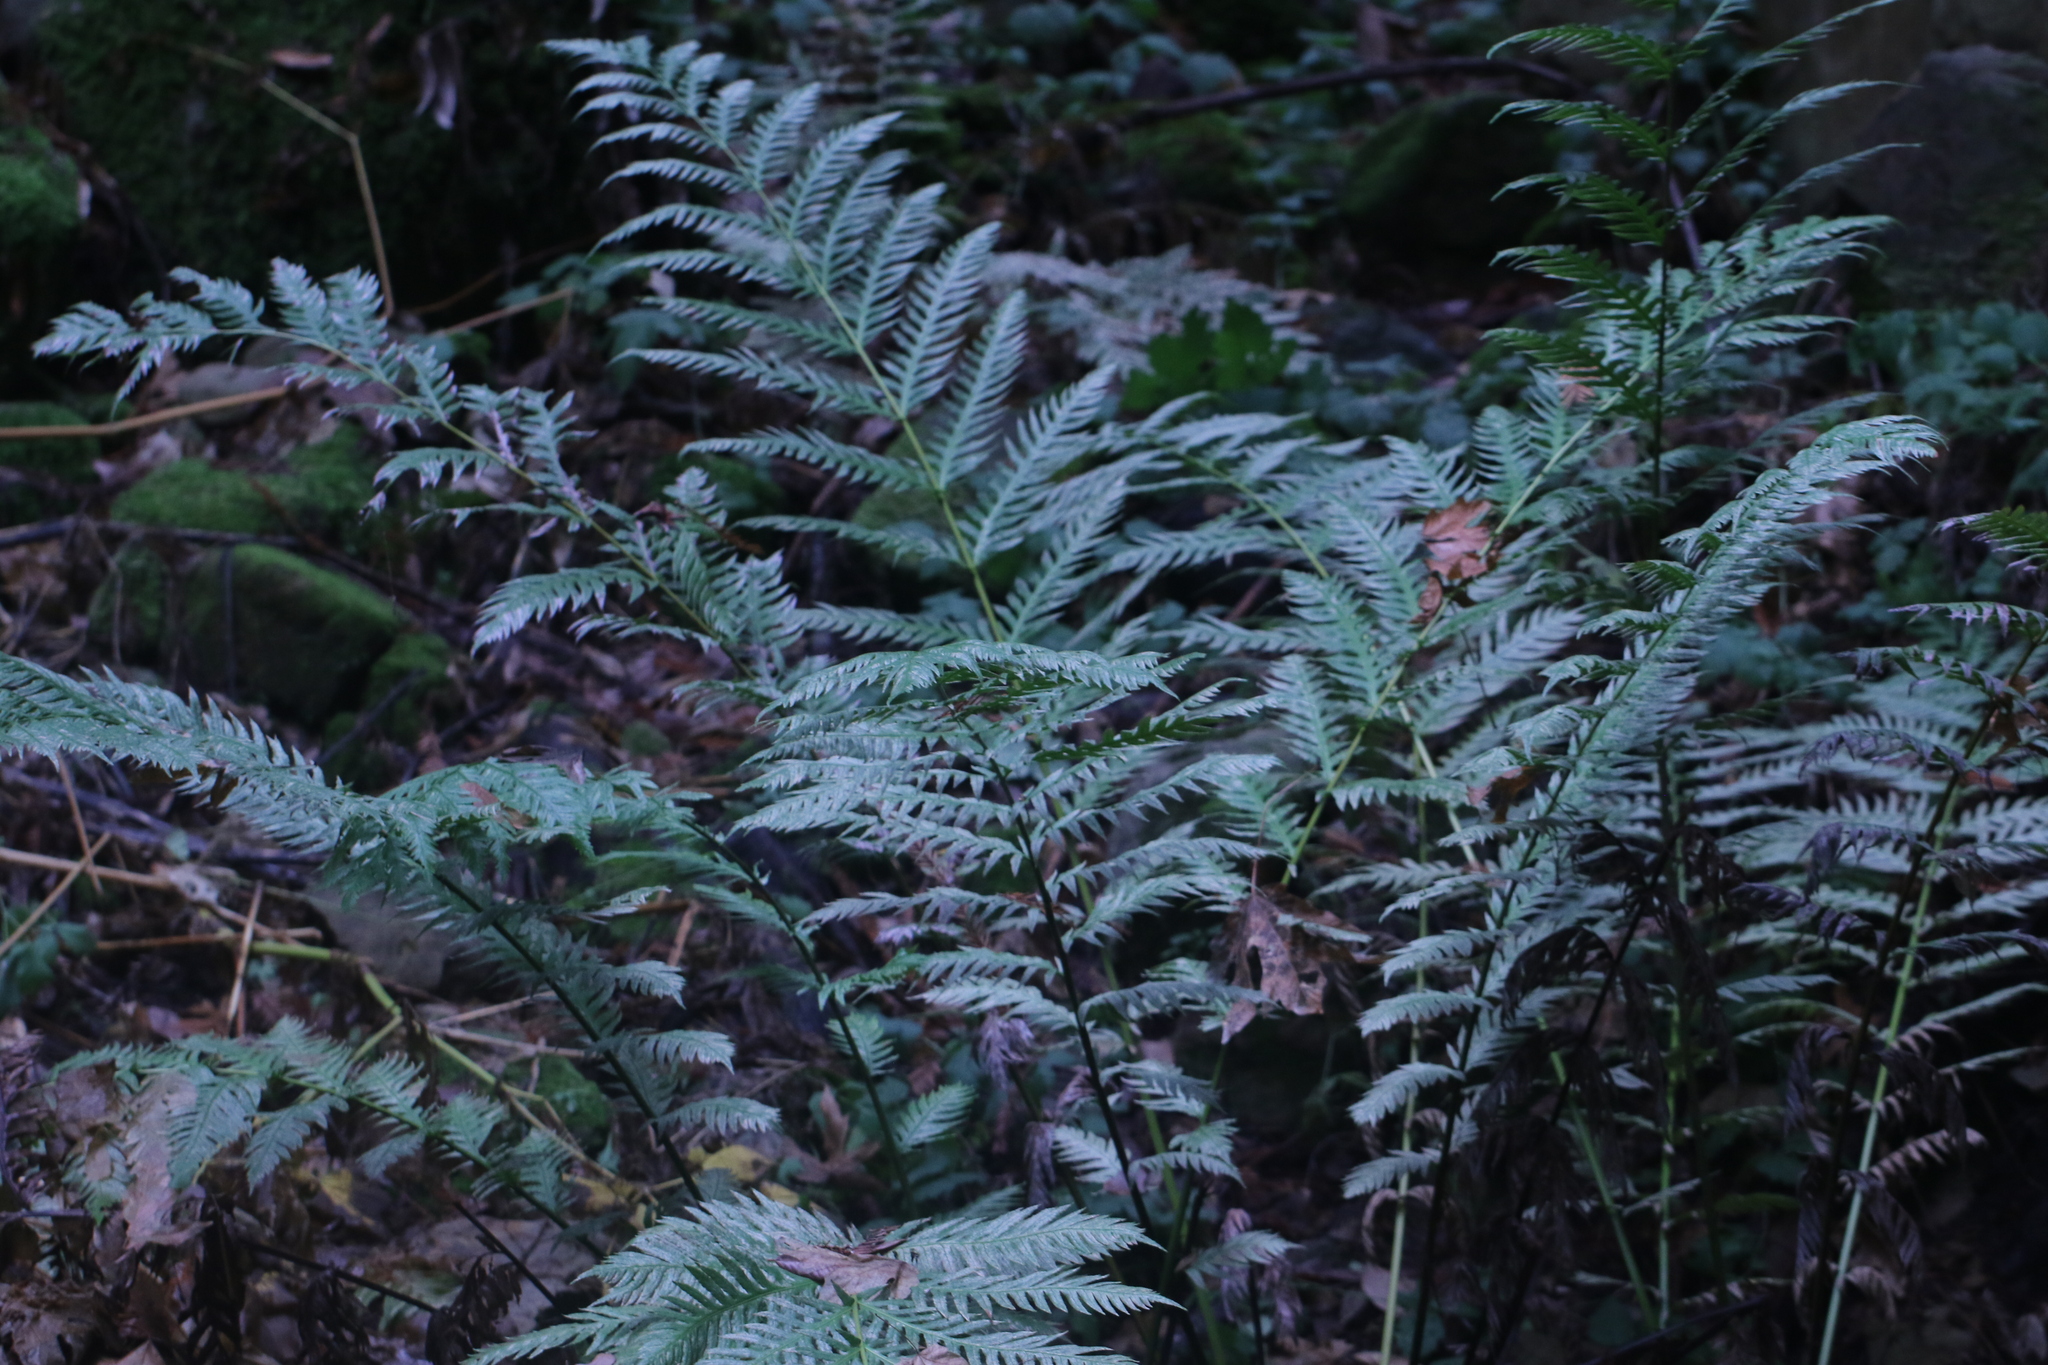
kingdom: Plantae
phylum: Tracheophyta
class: Polypodiopsida
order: Polypodiales
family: Blechnaceae
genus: Woodwardia
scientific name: Woodwardia fimbriata
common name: Giant chain fern
